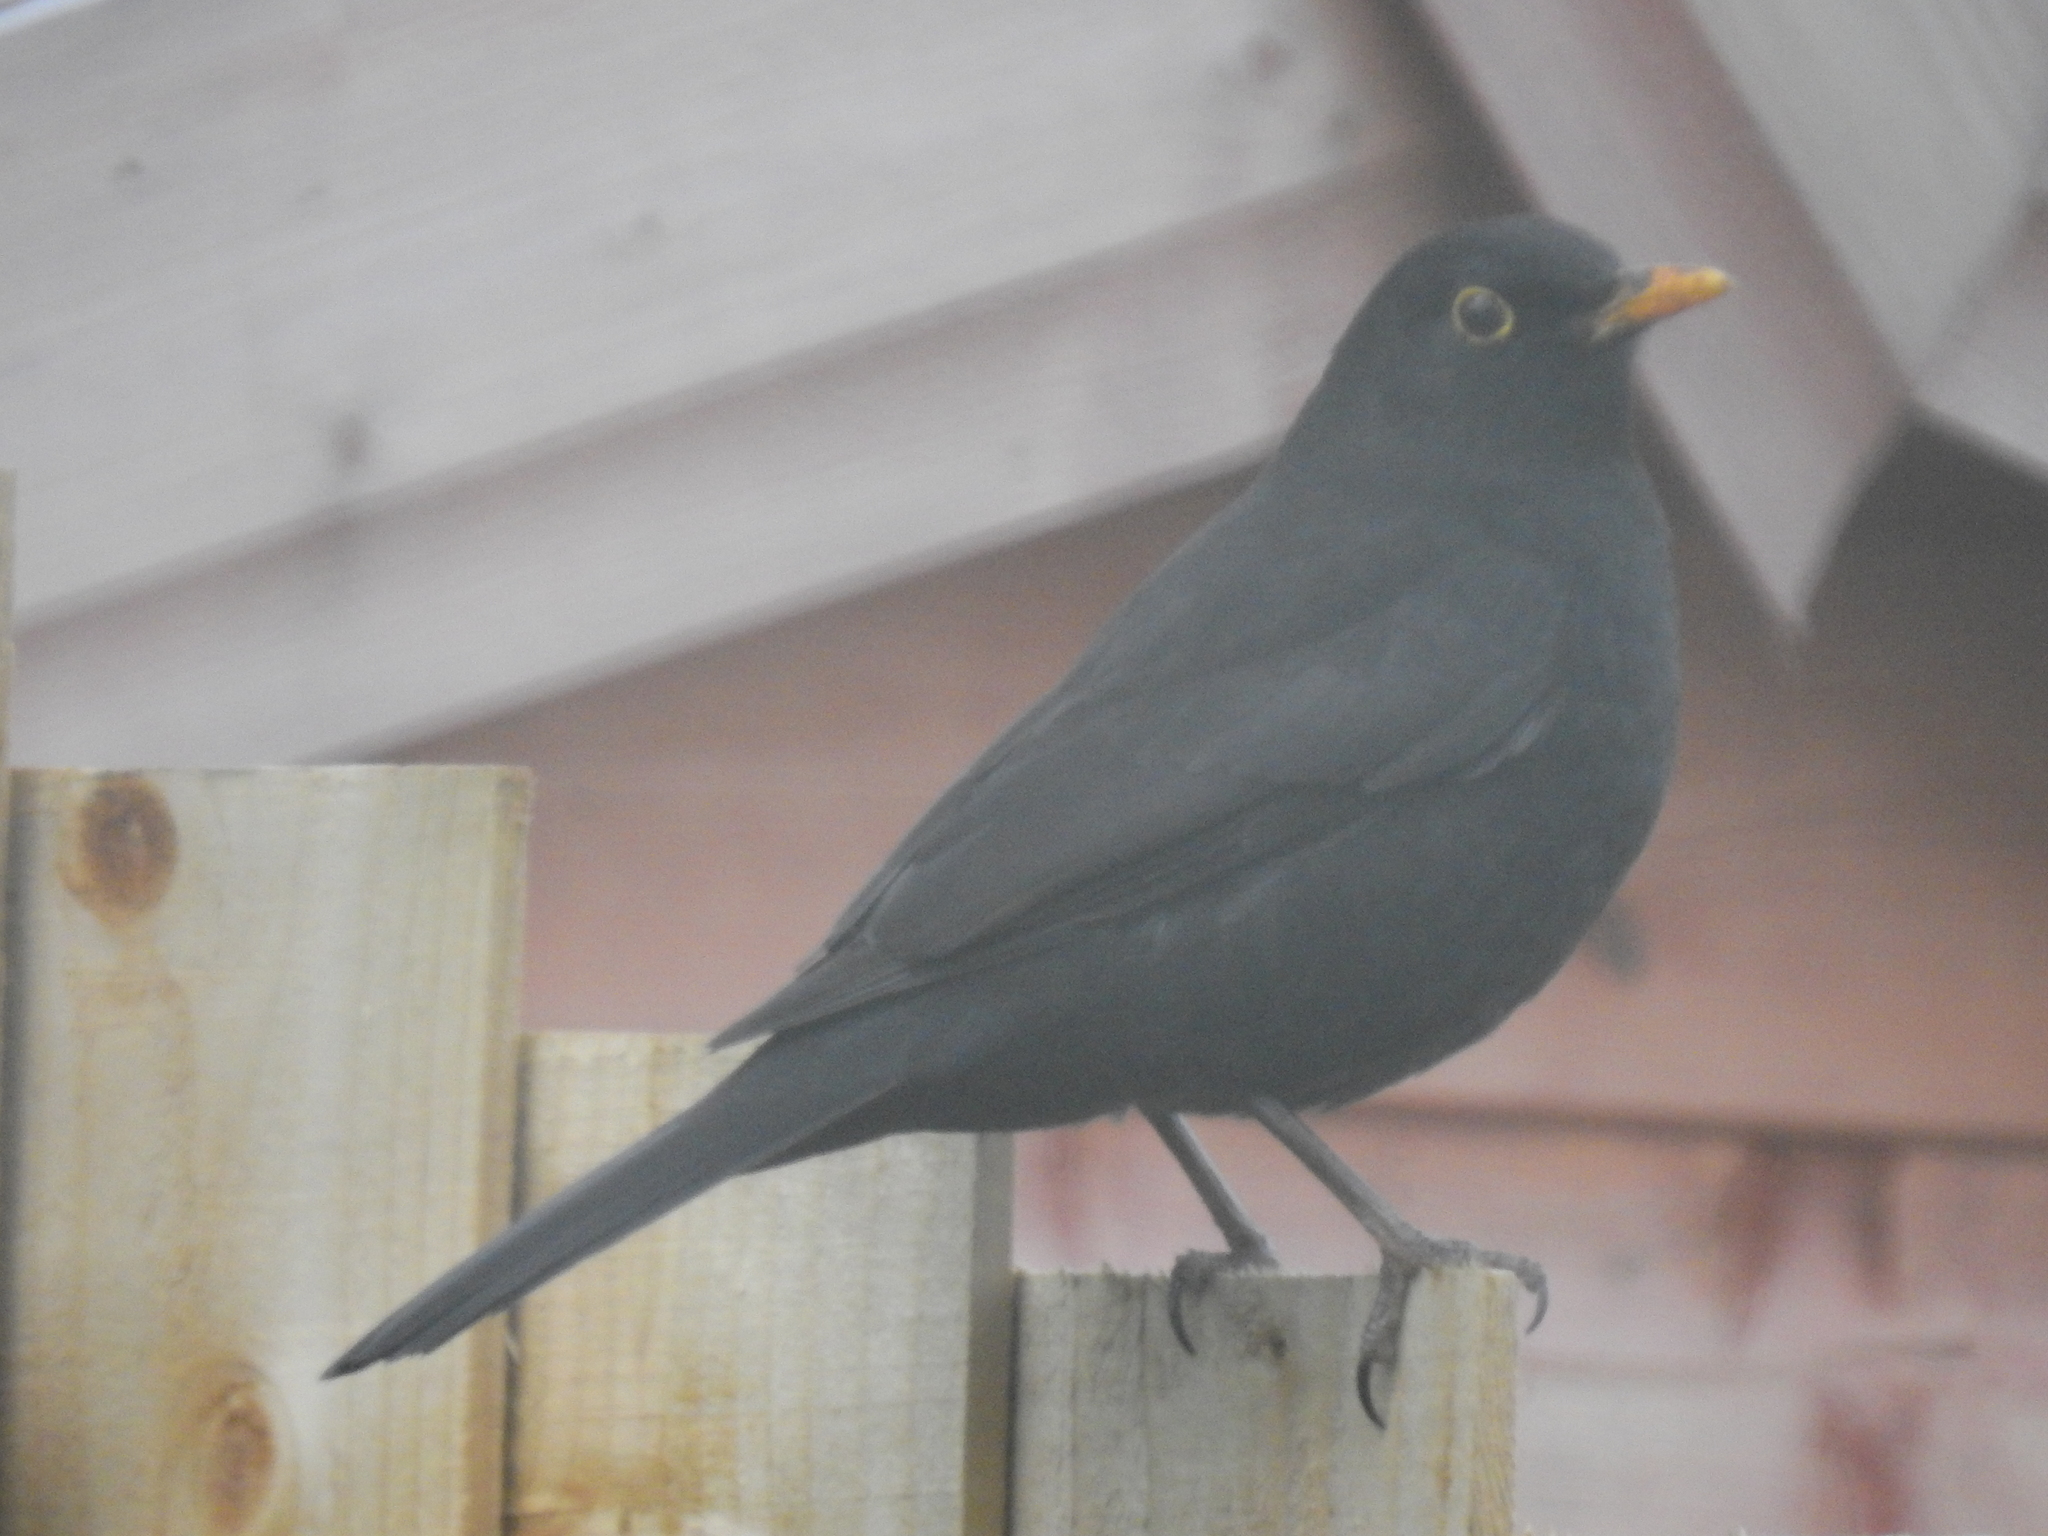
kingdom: Animalia
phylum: Chordata
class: Aves
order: Passeriformes
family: Turdidae
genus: Turdus
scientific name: Turdus merula
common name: Common blackbird
